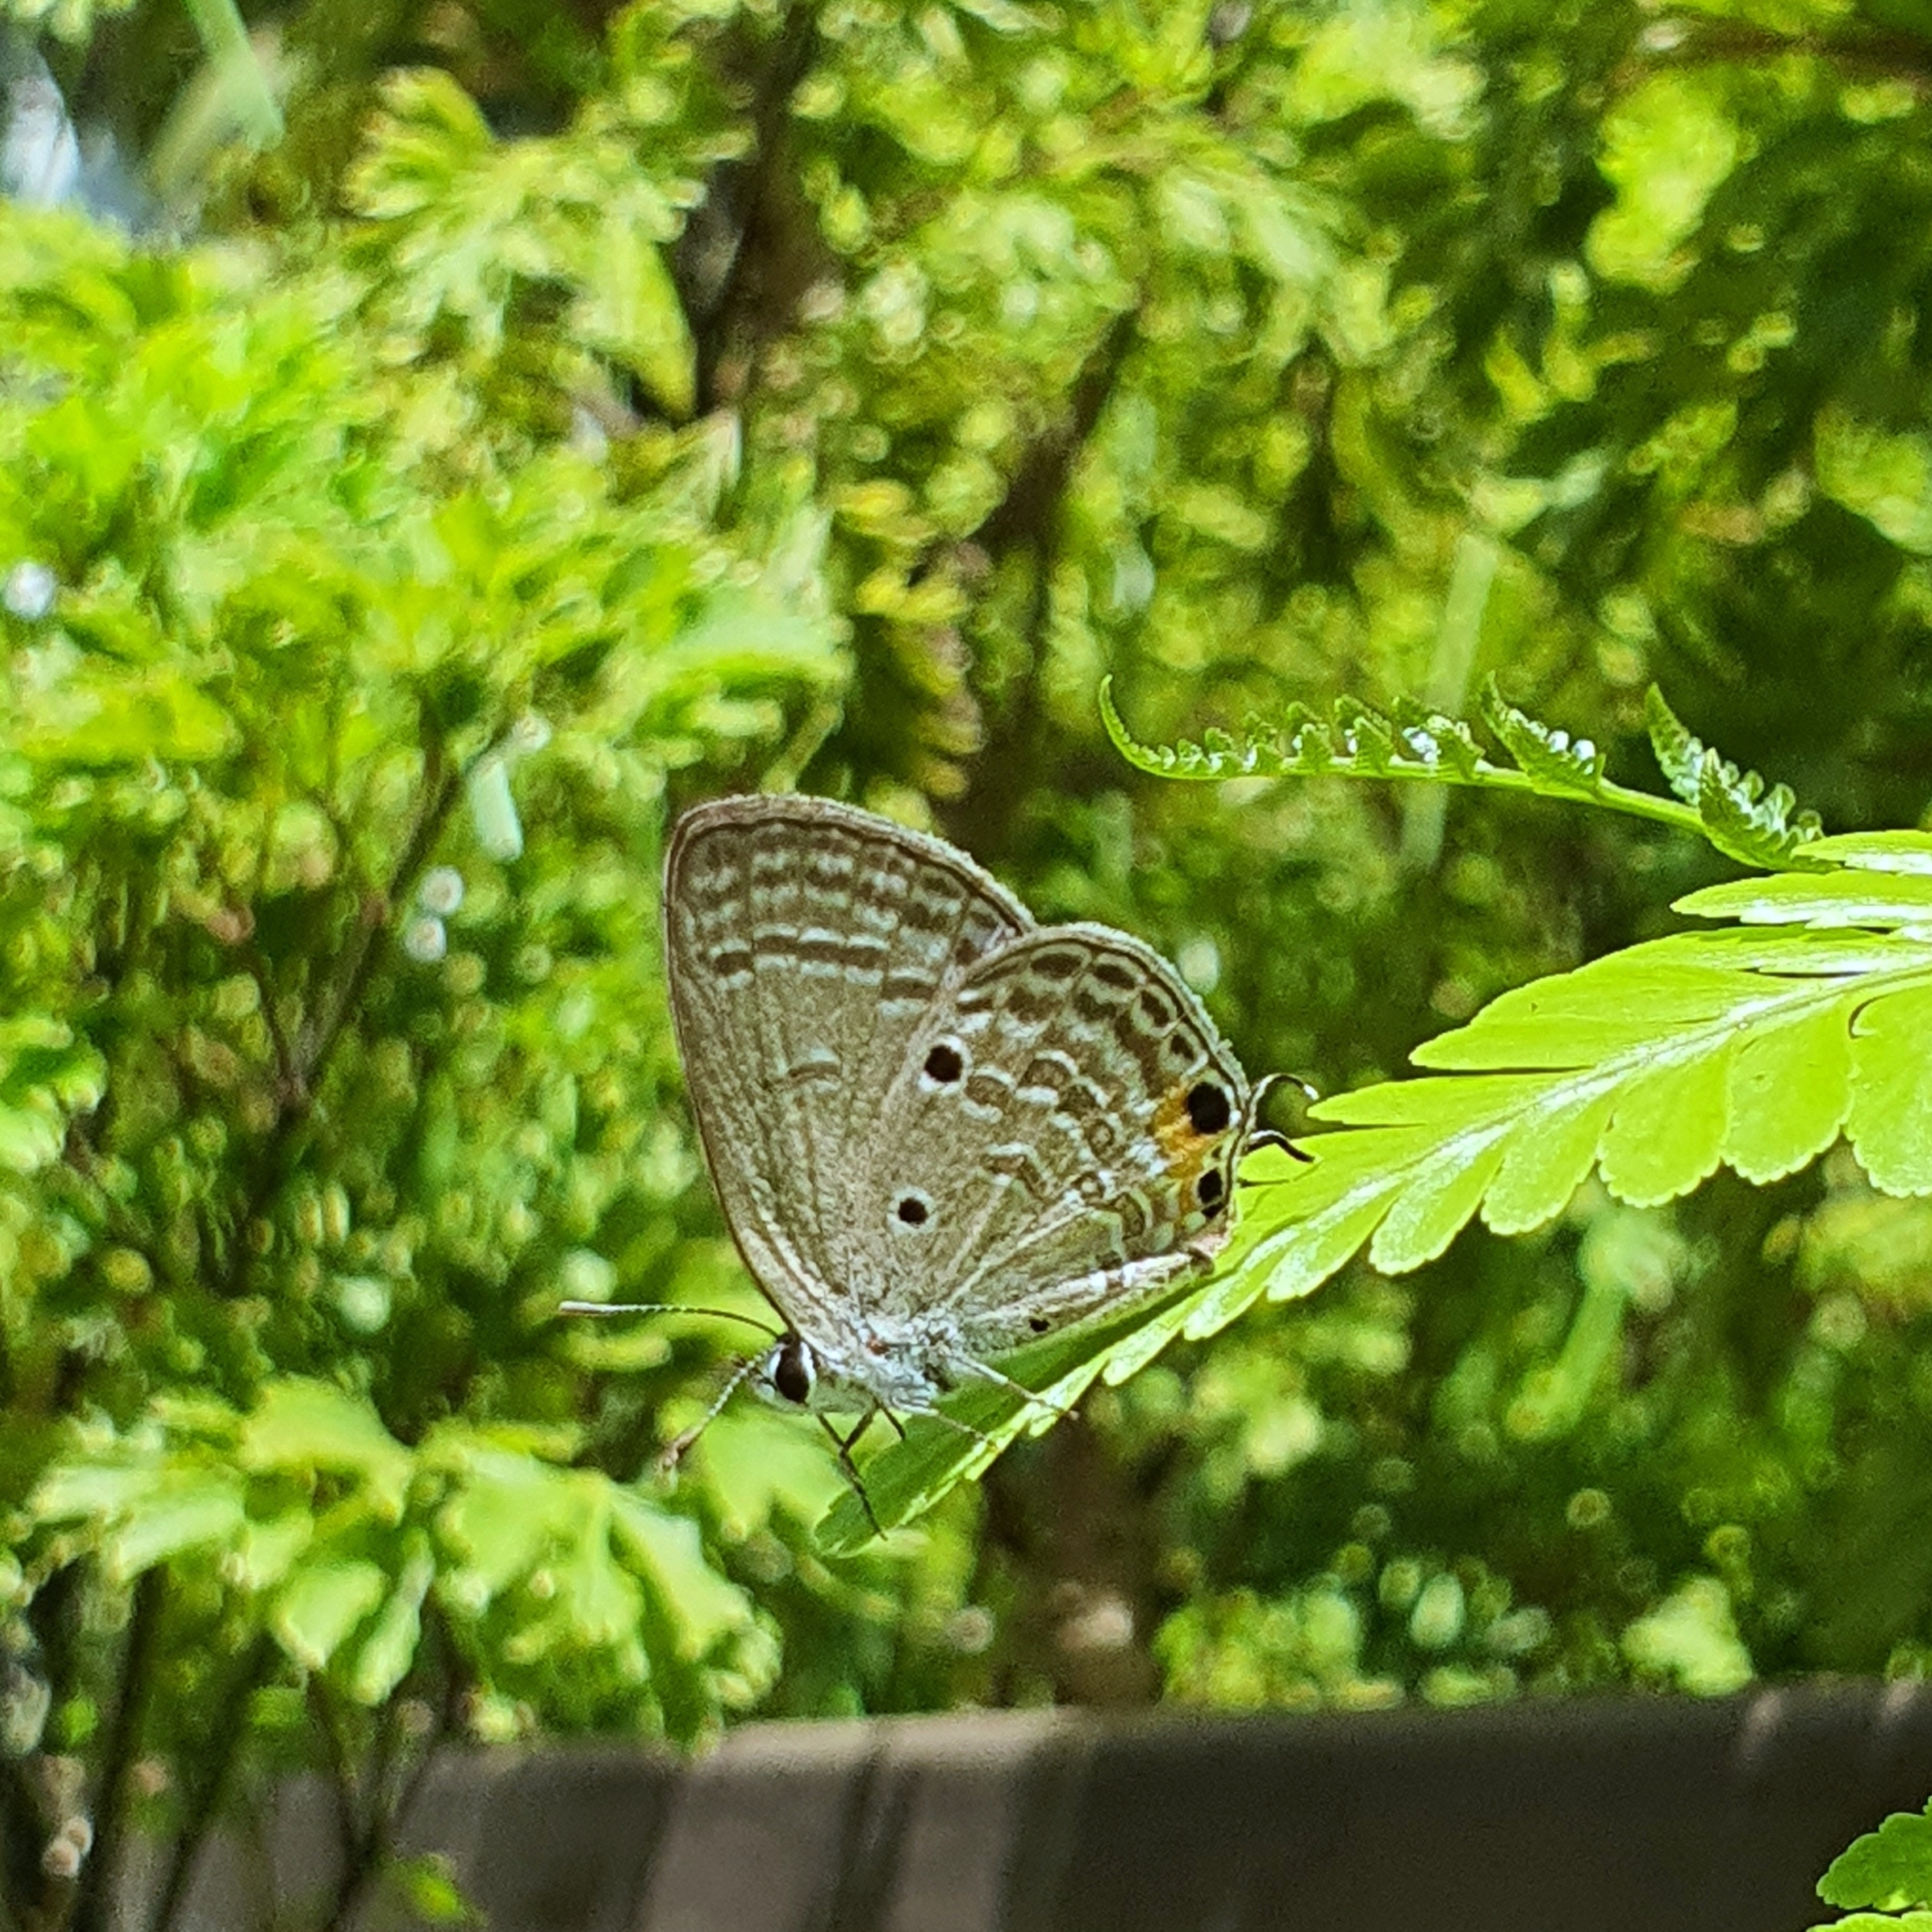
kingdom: Animalia
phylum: Arthropoda
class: Insecta
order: Lepidoptera
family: Lycaenidae
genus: Luthrodes
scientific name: Luthrodes pandava
